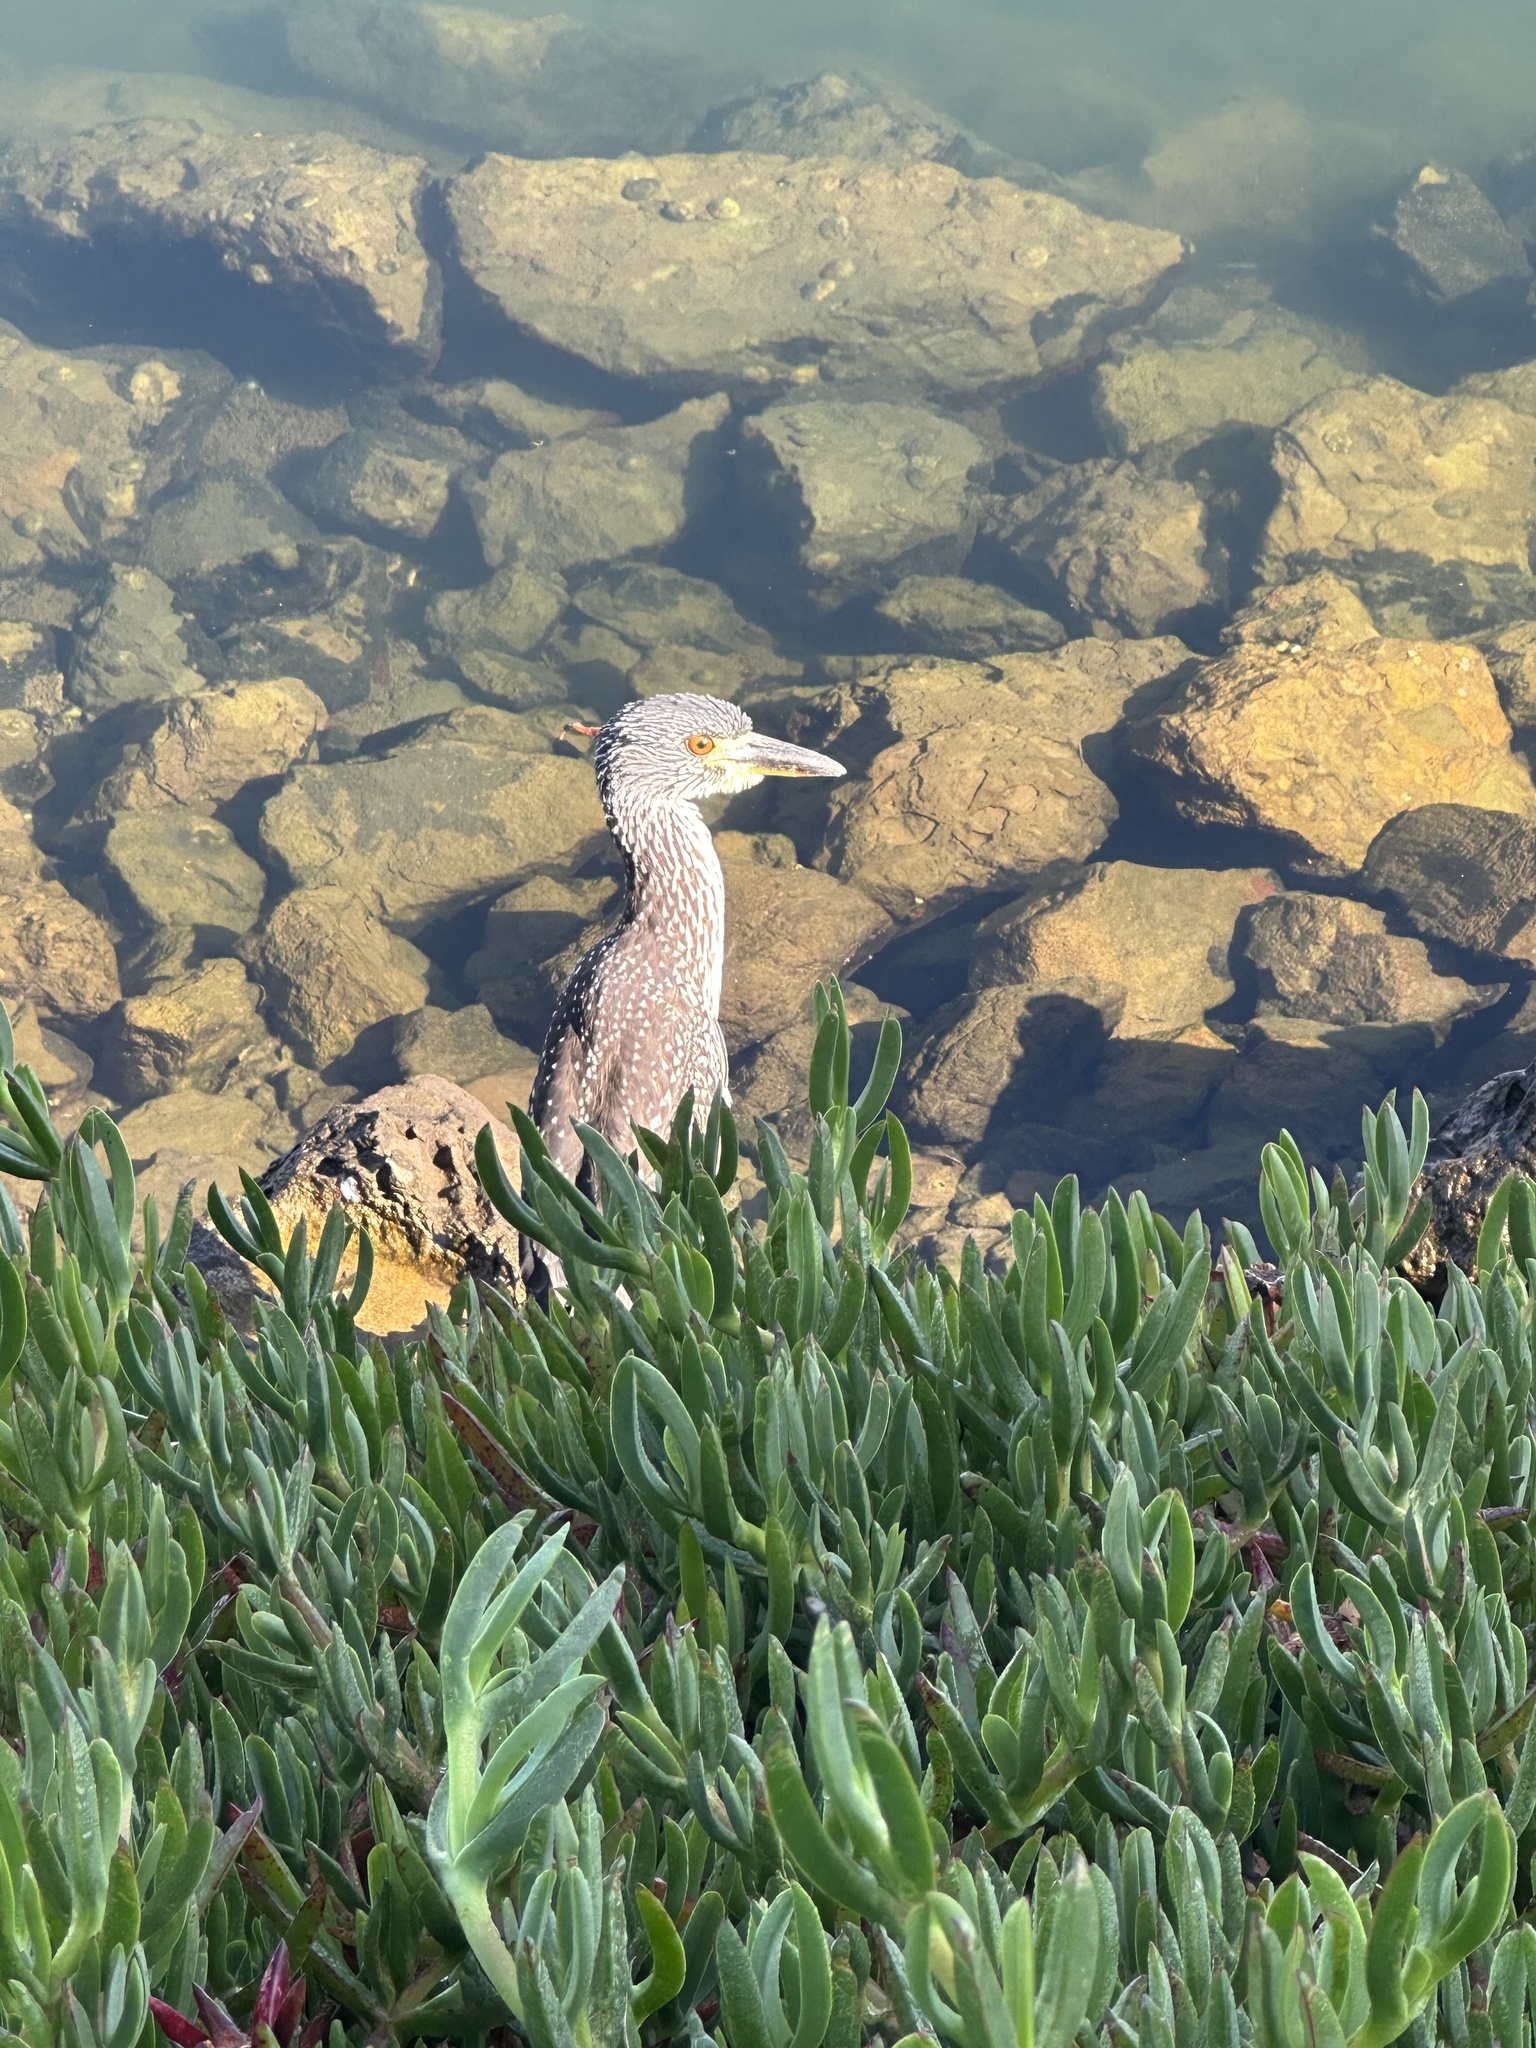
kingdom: Animalia
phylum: Chordata
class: Aves
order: Pelecaniformes
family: Ardeidae
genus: Nyctanassa
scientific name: Nyctanassa violacea
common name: Yellow-crowned night heron
